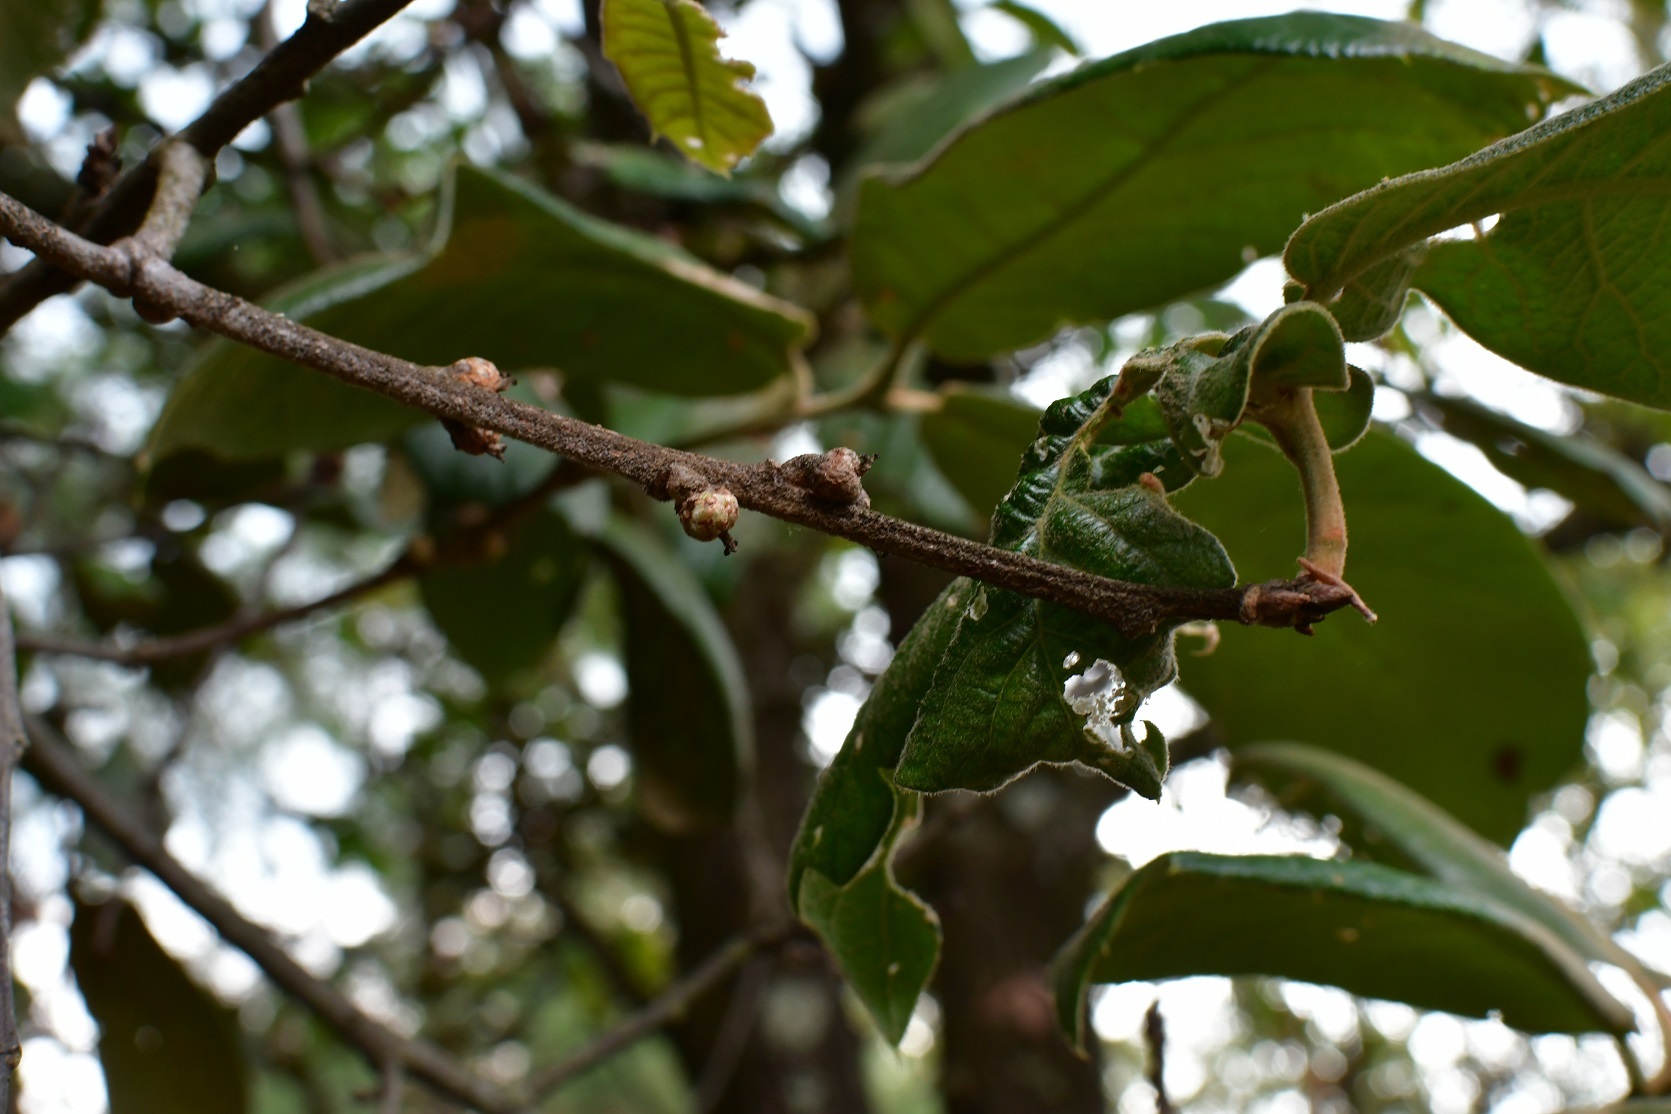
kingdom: Plantae
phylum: Tracheophyta
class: Magnoliopsida
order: Fagales
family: Fagaceae
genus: Quercus
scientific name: Quercus crassifolia
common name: Leather leaf mexican oak
